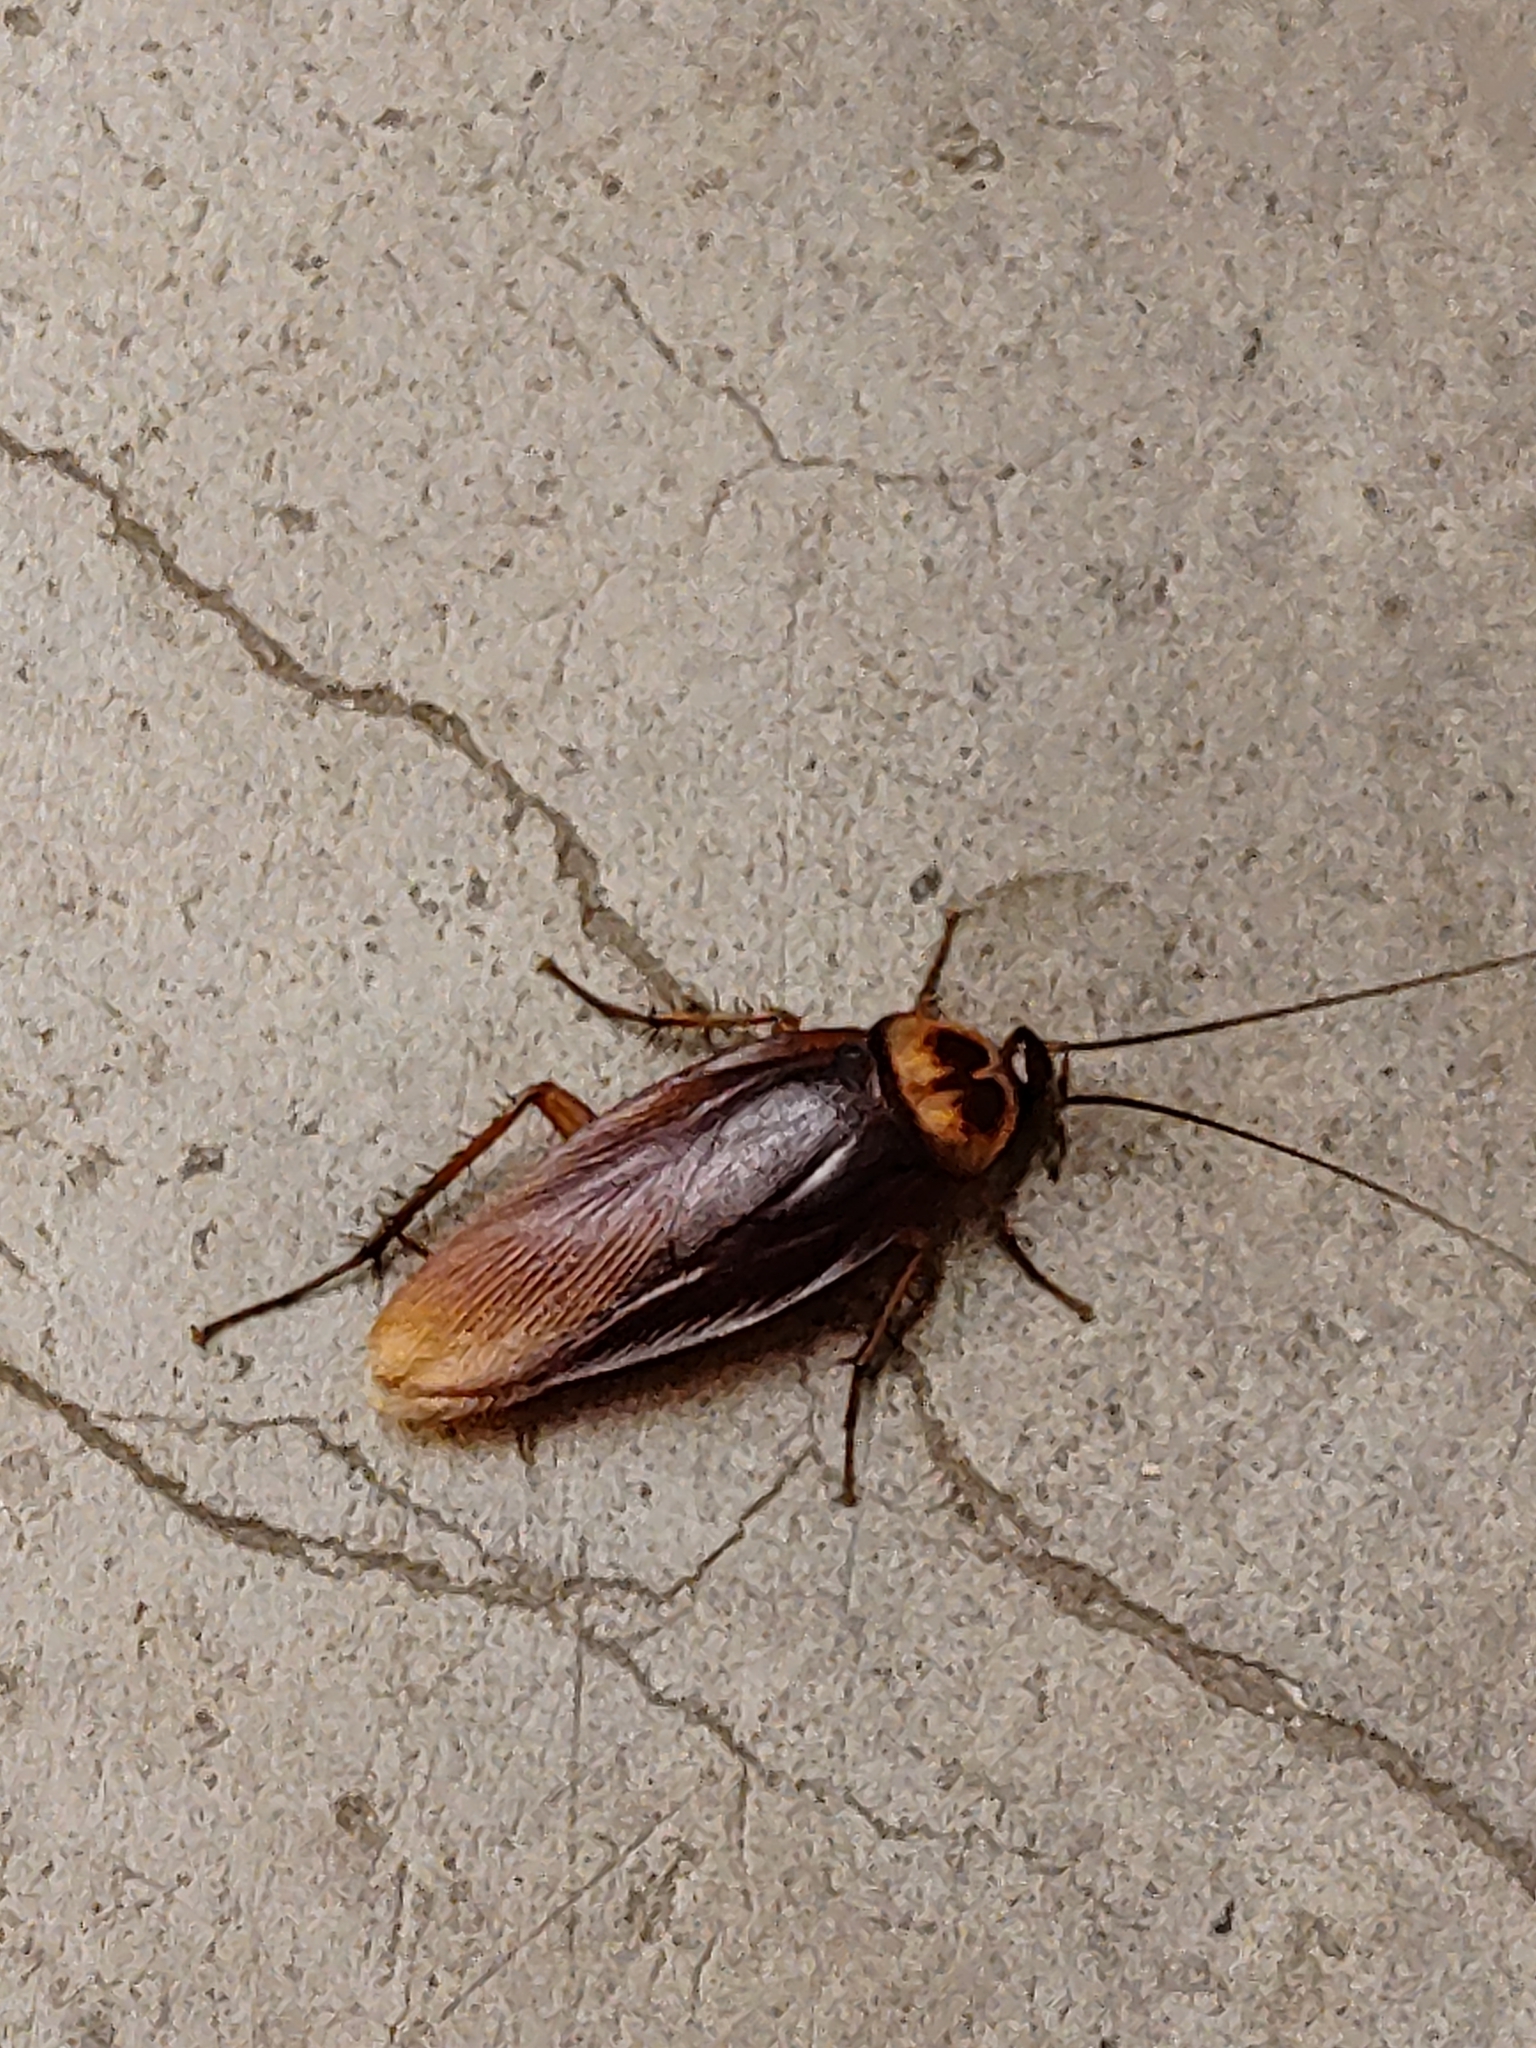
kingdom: Animalia
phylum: Arthropoda
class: Insecta
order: Blattodea
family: Blattidae
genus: Periplaneta
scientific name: Periplaneta americana
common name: American cockroach
